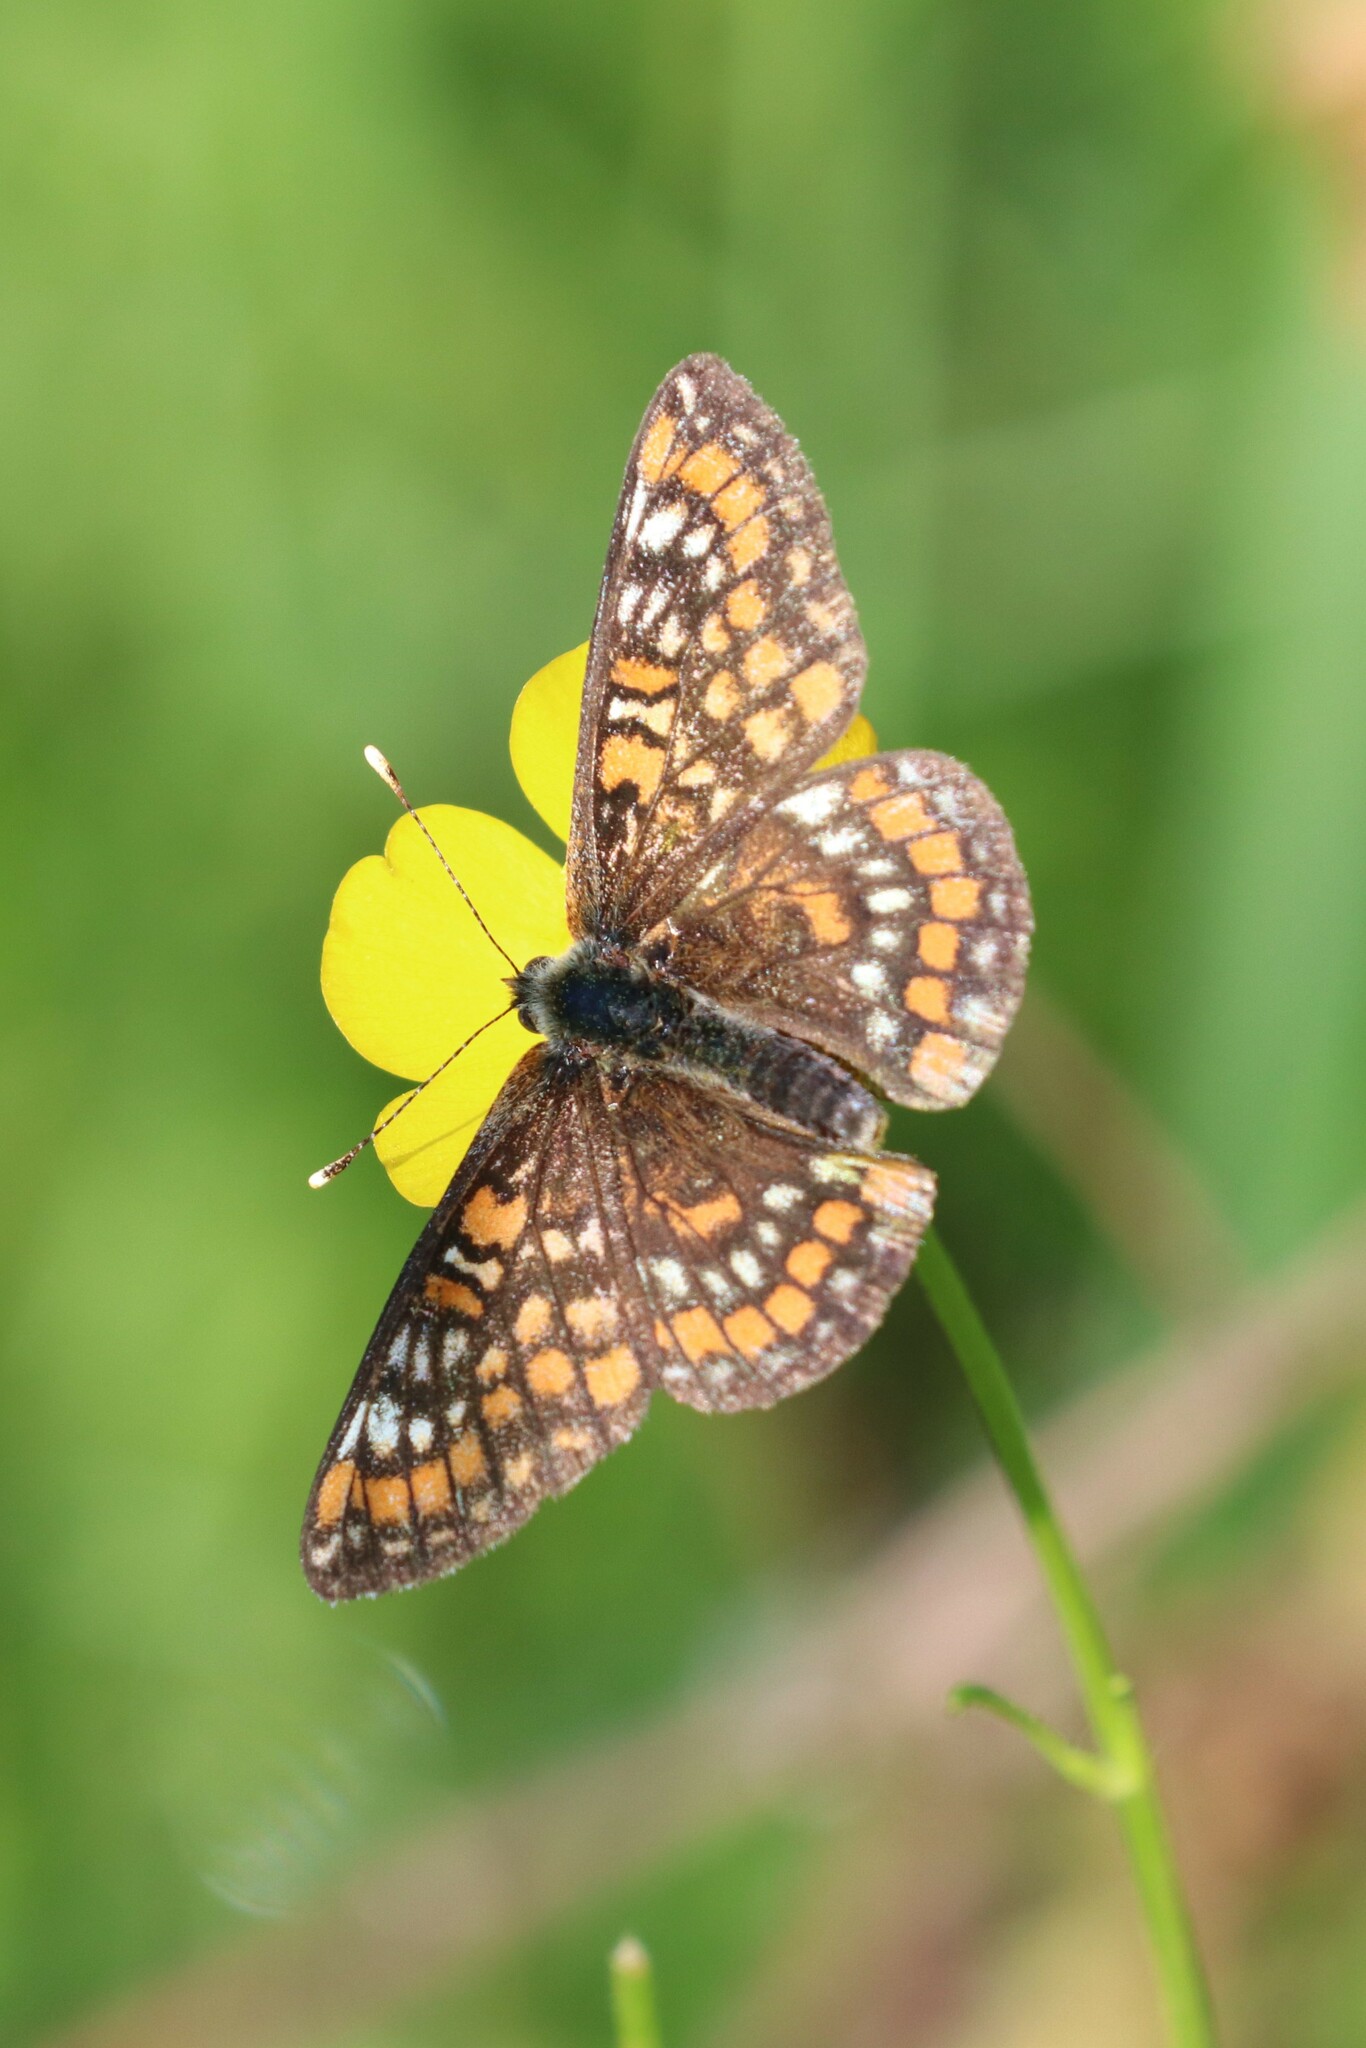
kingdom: Animalia
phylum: Arthropoda
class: Insecta
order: Lepidoptera
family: Nymphalidae
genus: Euphydryas
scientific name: Euphydryas maturna
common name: Scarce fritillary
